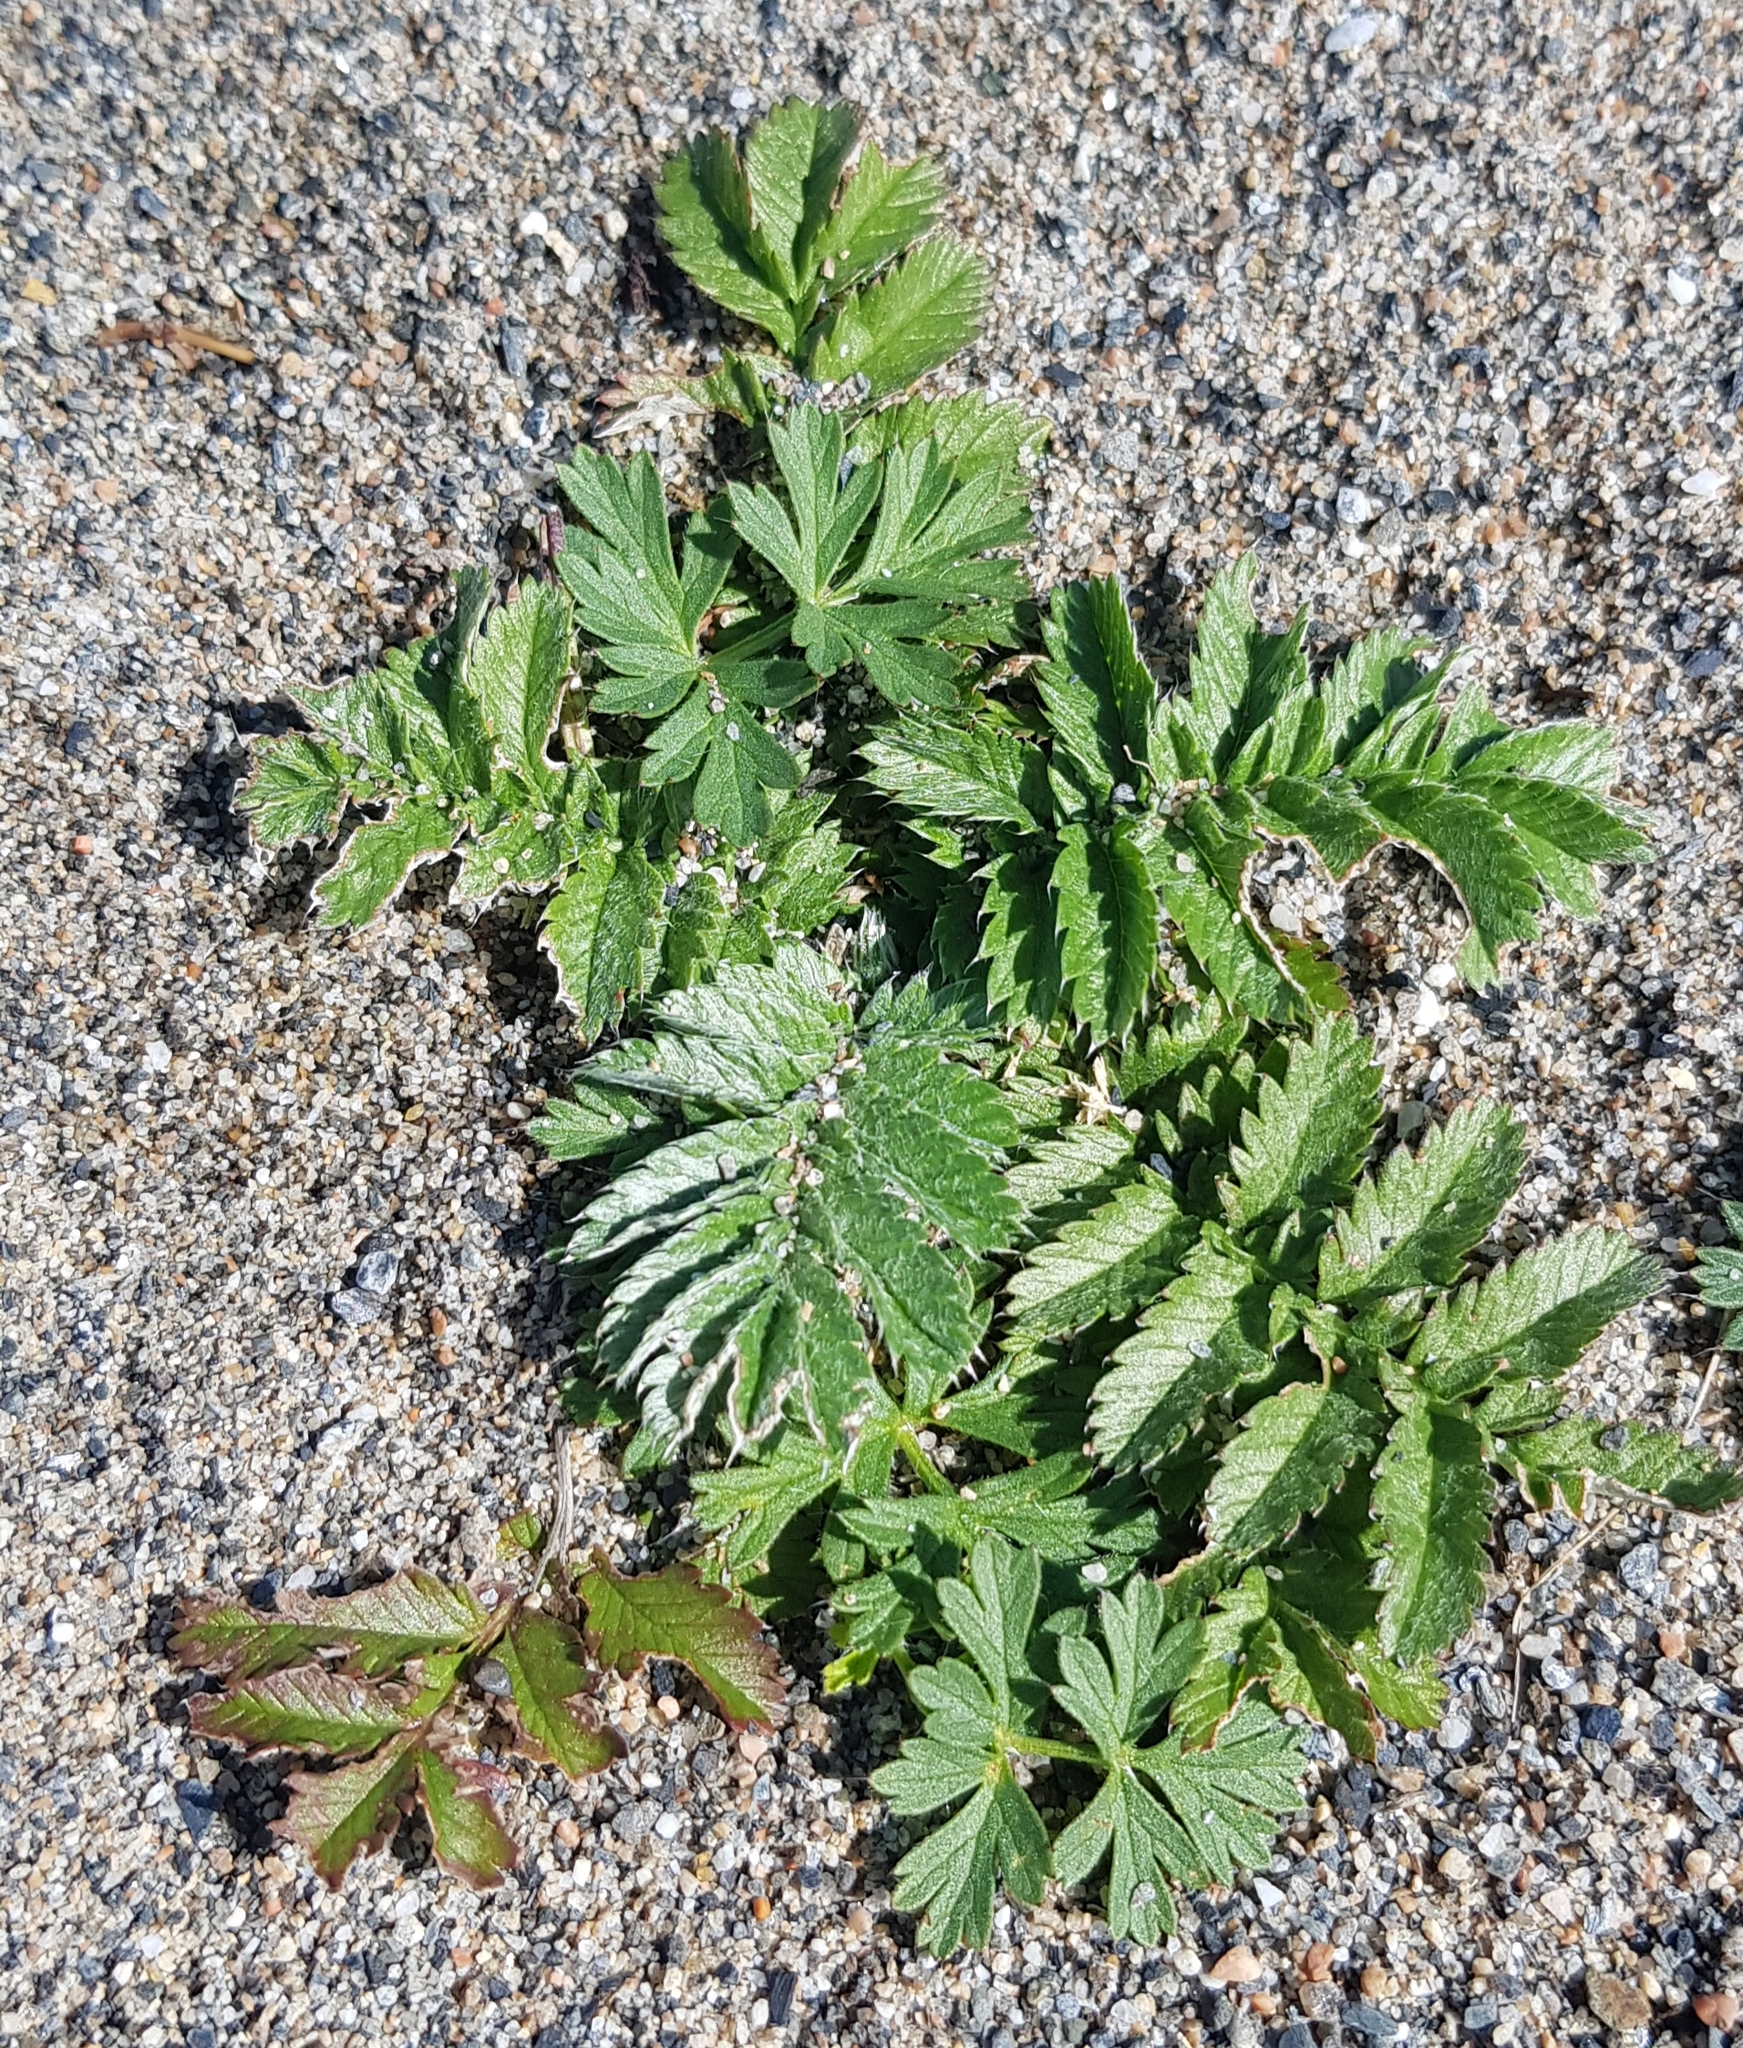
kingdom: Plantae
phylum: Tracheophyta
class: Magnoliopsida
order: Rosales
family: Rosaceae
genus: Argentina
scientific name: Argentina anserina
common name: Common silverweed
